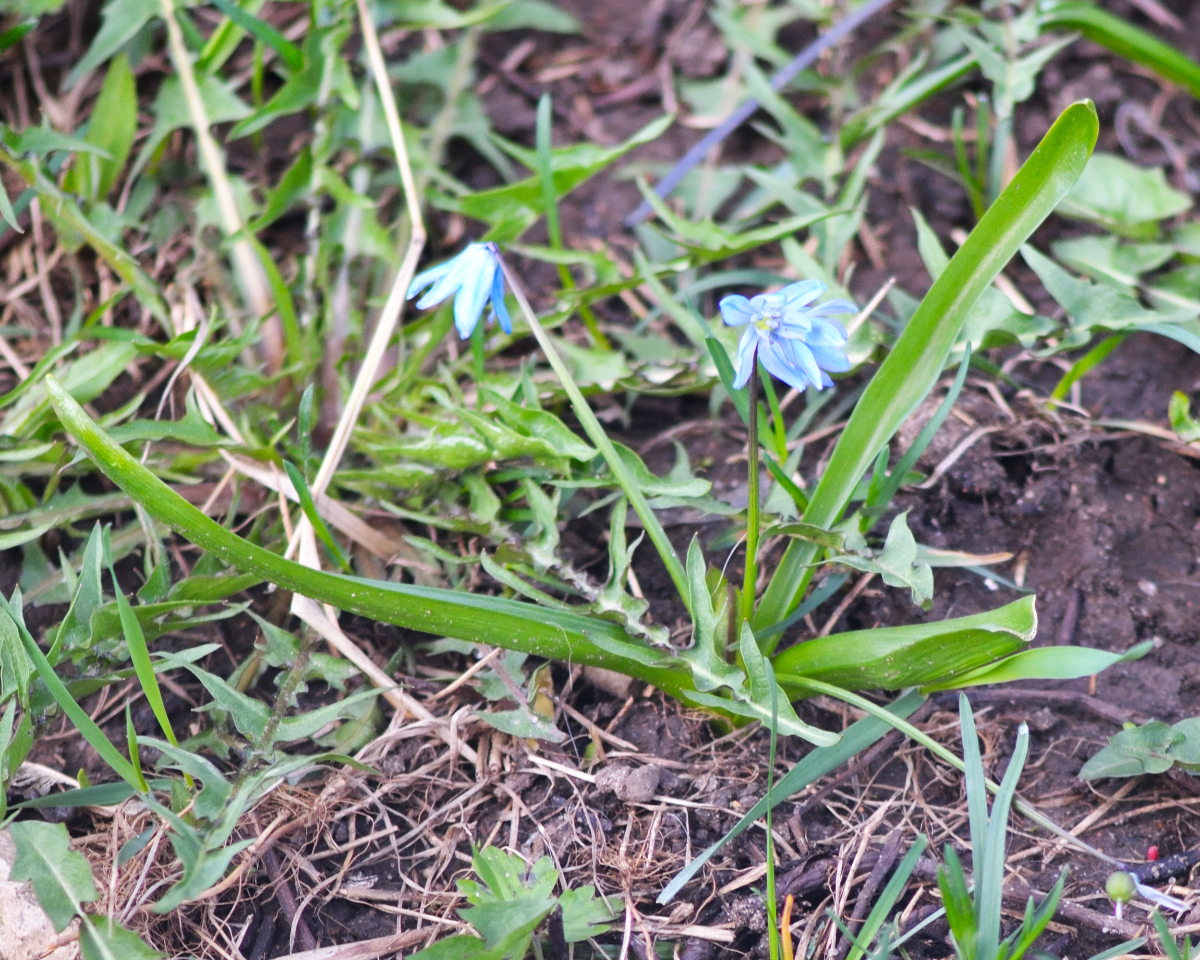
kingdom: Plantae
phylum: Tracheophyta
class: Liliopsida
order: Asparagales
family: Asparagaceae
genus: Scilla
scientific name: Scilla siberica
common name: Siberian squill
